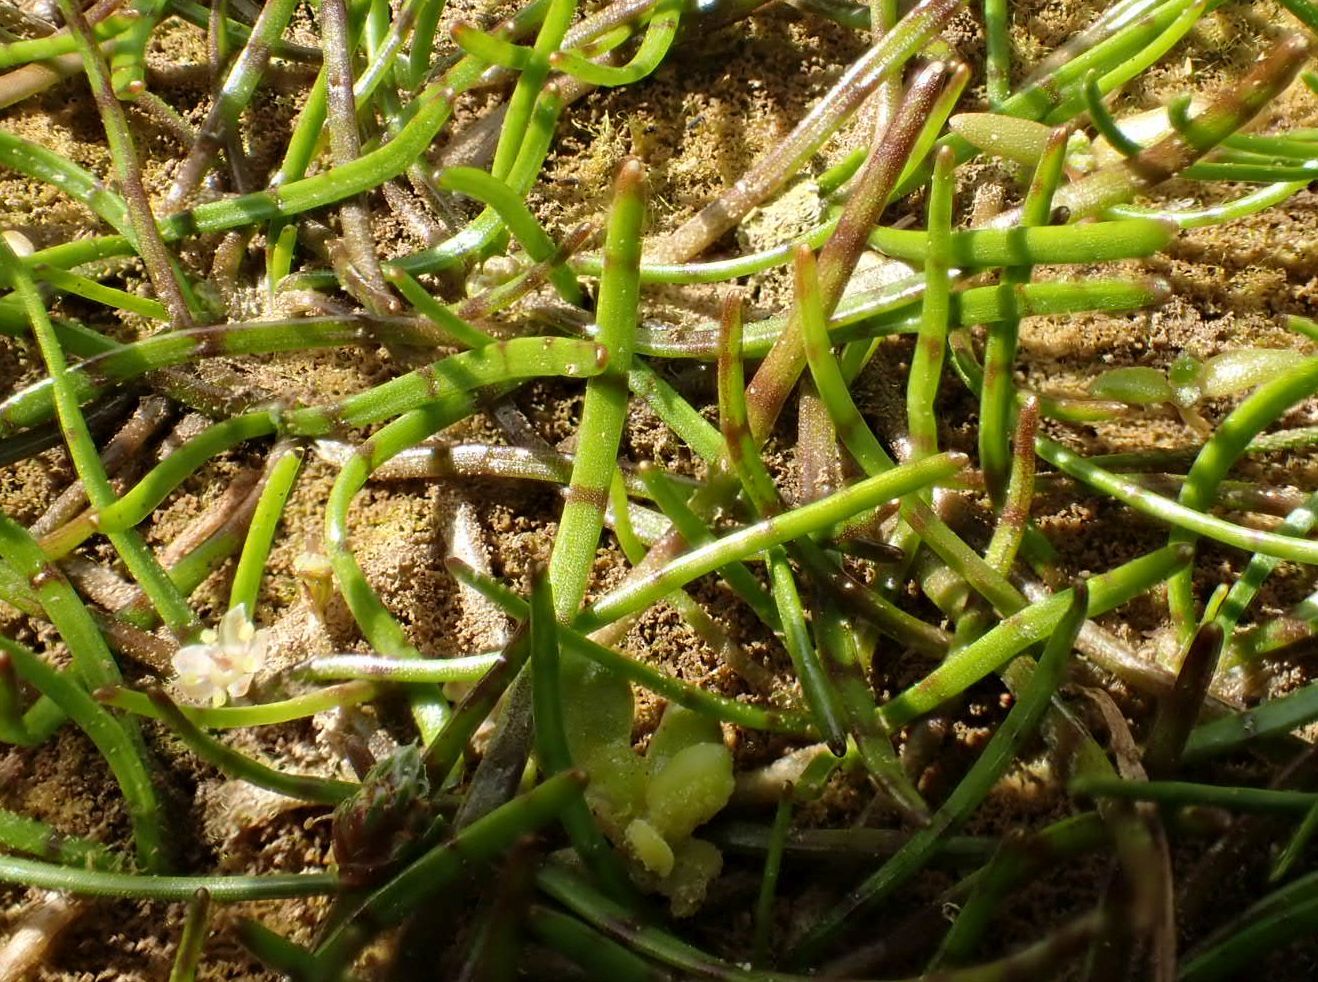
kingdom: Plantae
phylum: Tracheophyta
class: Magnoliopsida
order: Apiales
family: Apiaceae
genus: Lilaeopsis
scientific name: Lilaeopsis novae-zelandiae
